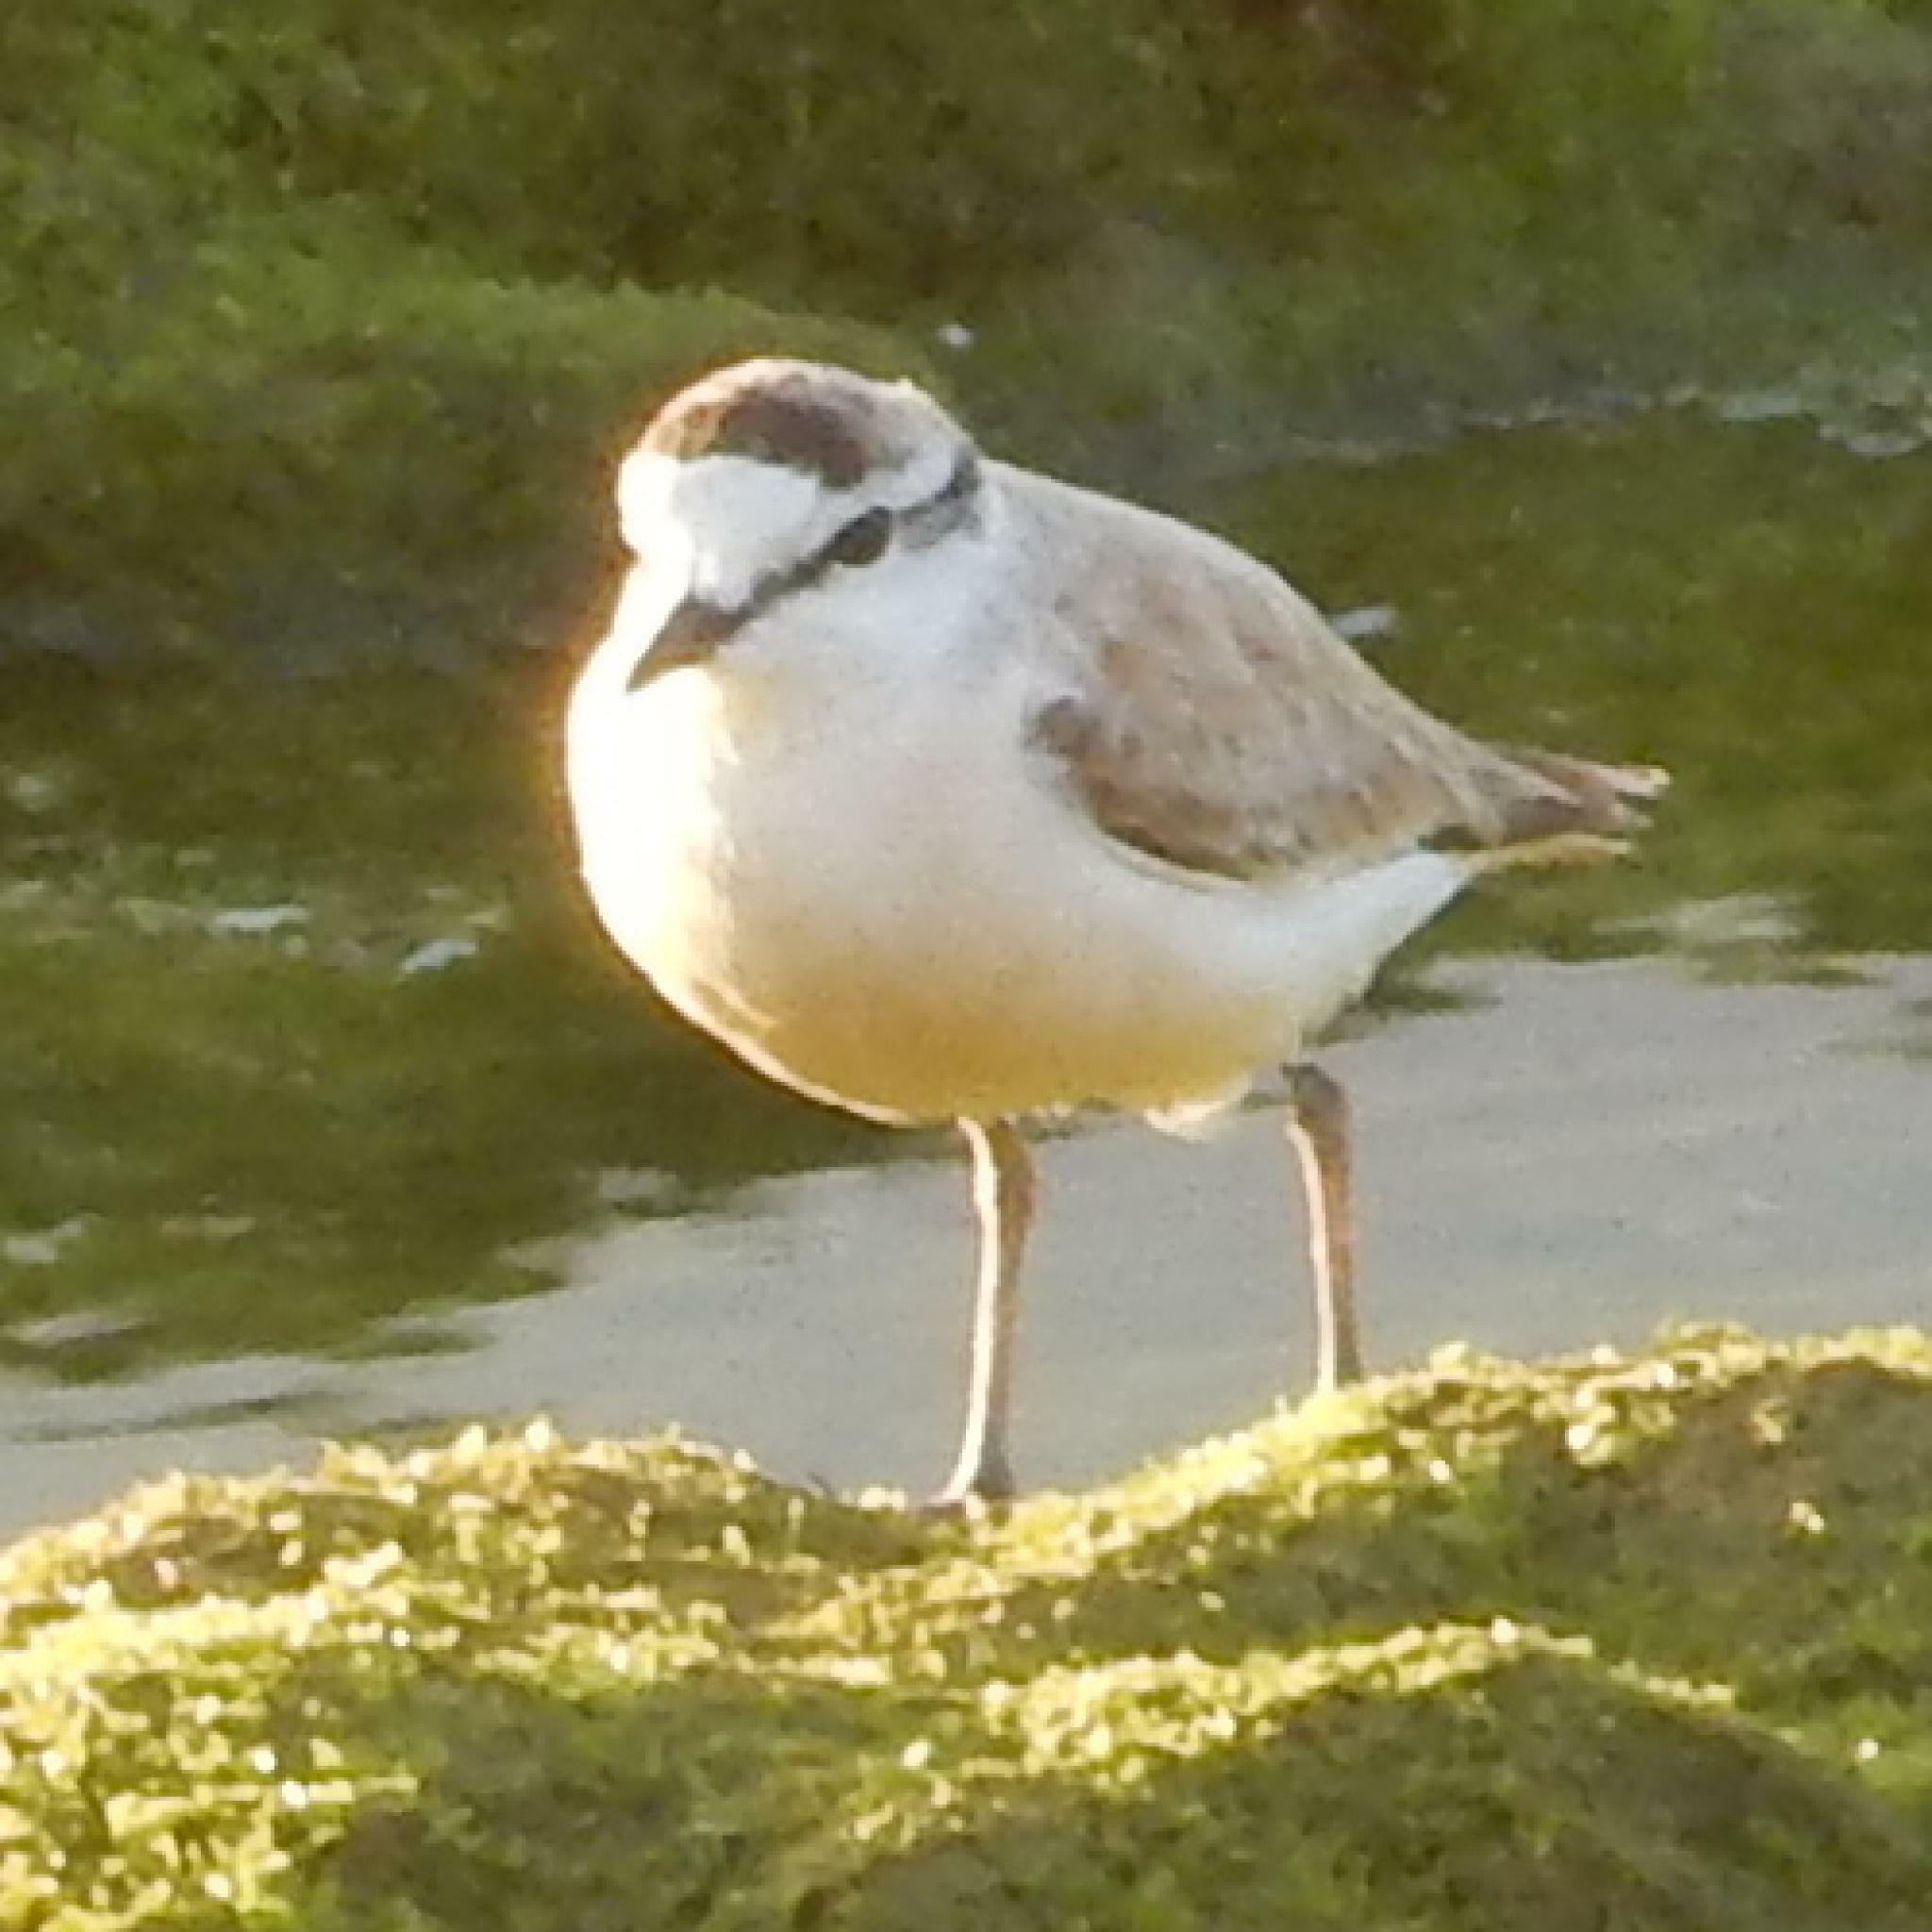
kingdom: Animalia
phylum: Chordata
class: Aves
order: Charadriiformes
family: Charadriidae
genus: Anarhynchus
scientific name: Anarhynchus
